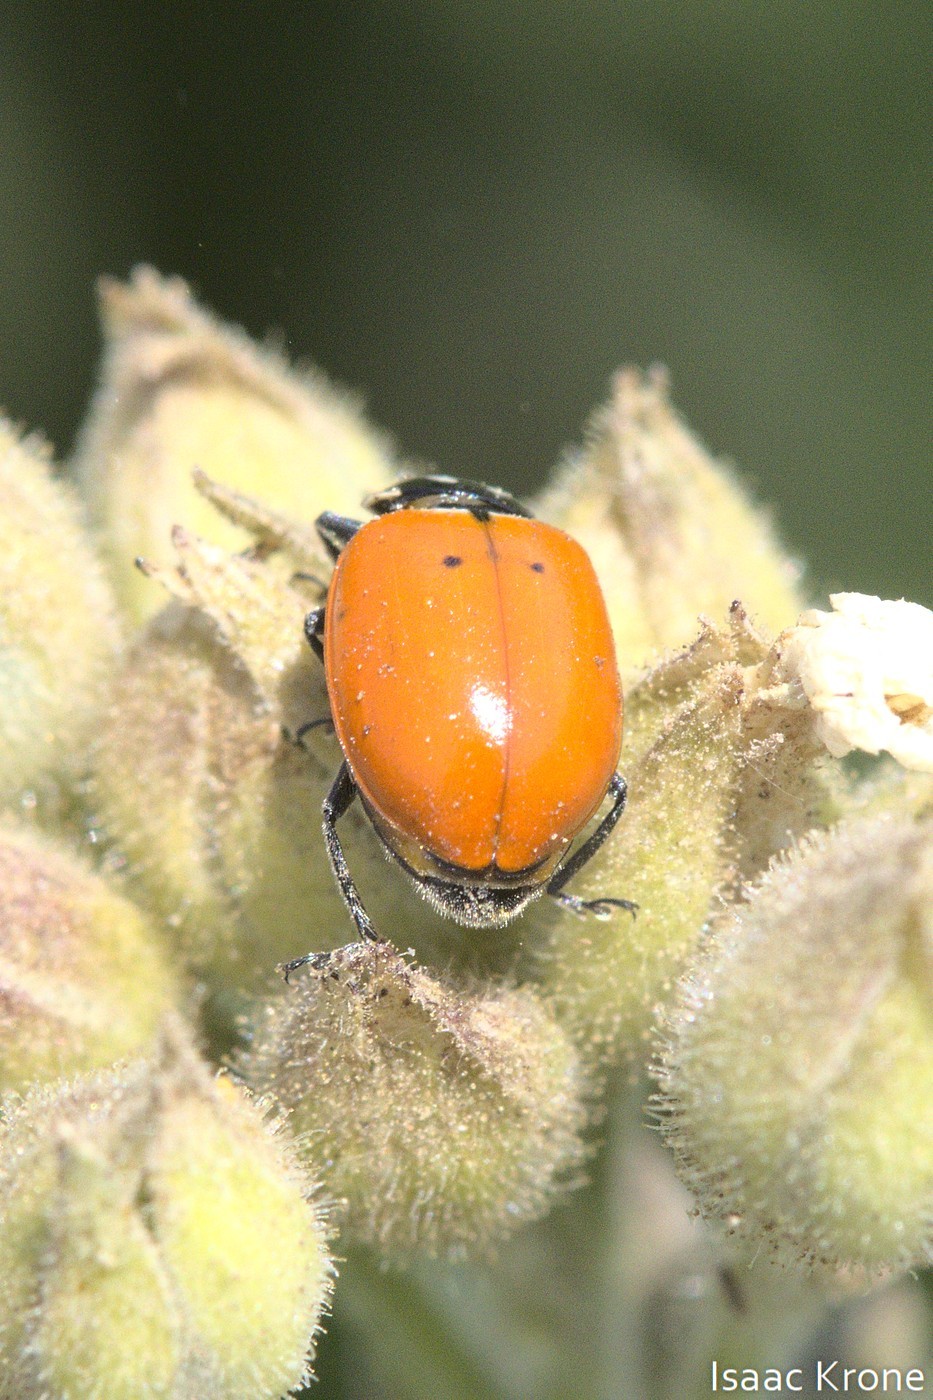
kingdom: Animalia
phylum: Arthropoda
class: Insecta
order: Coleoptera
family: Coccinellidae
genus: Hippodamia
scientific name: Hippodamia convergens
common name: Convergent lady beetle
